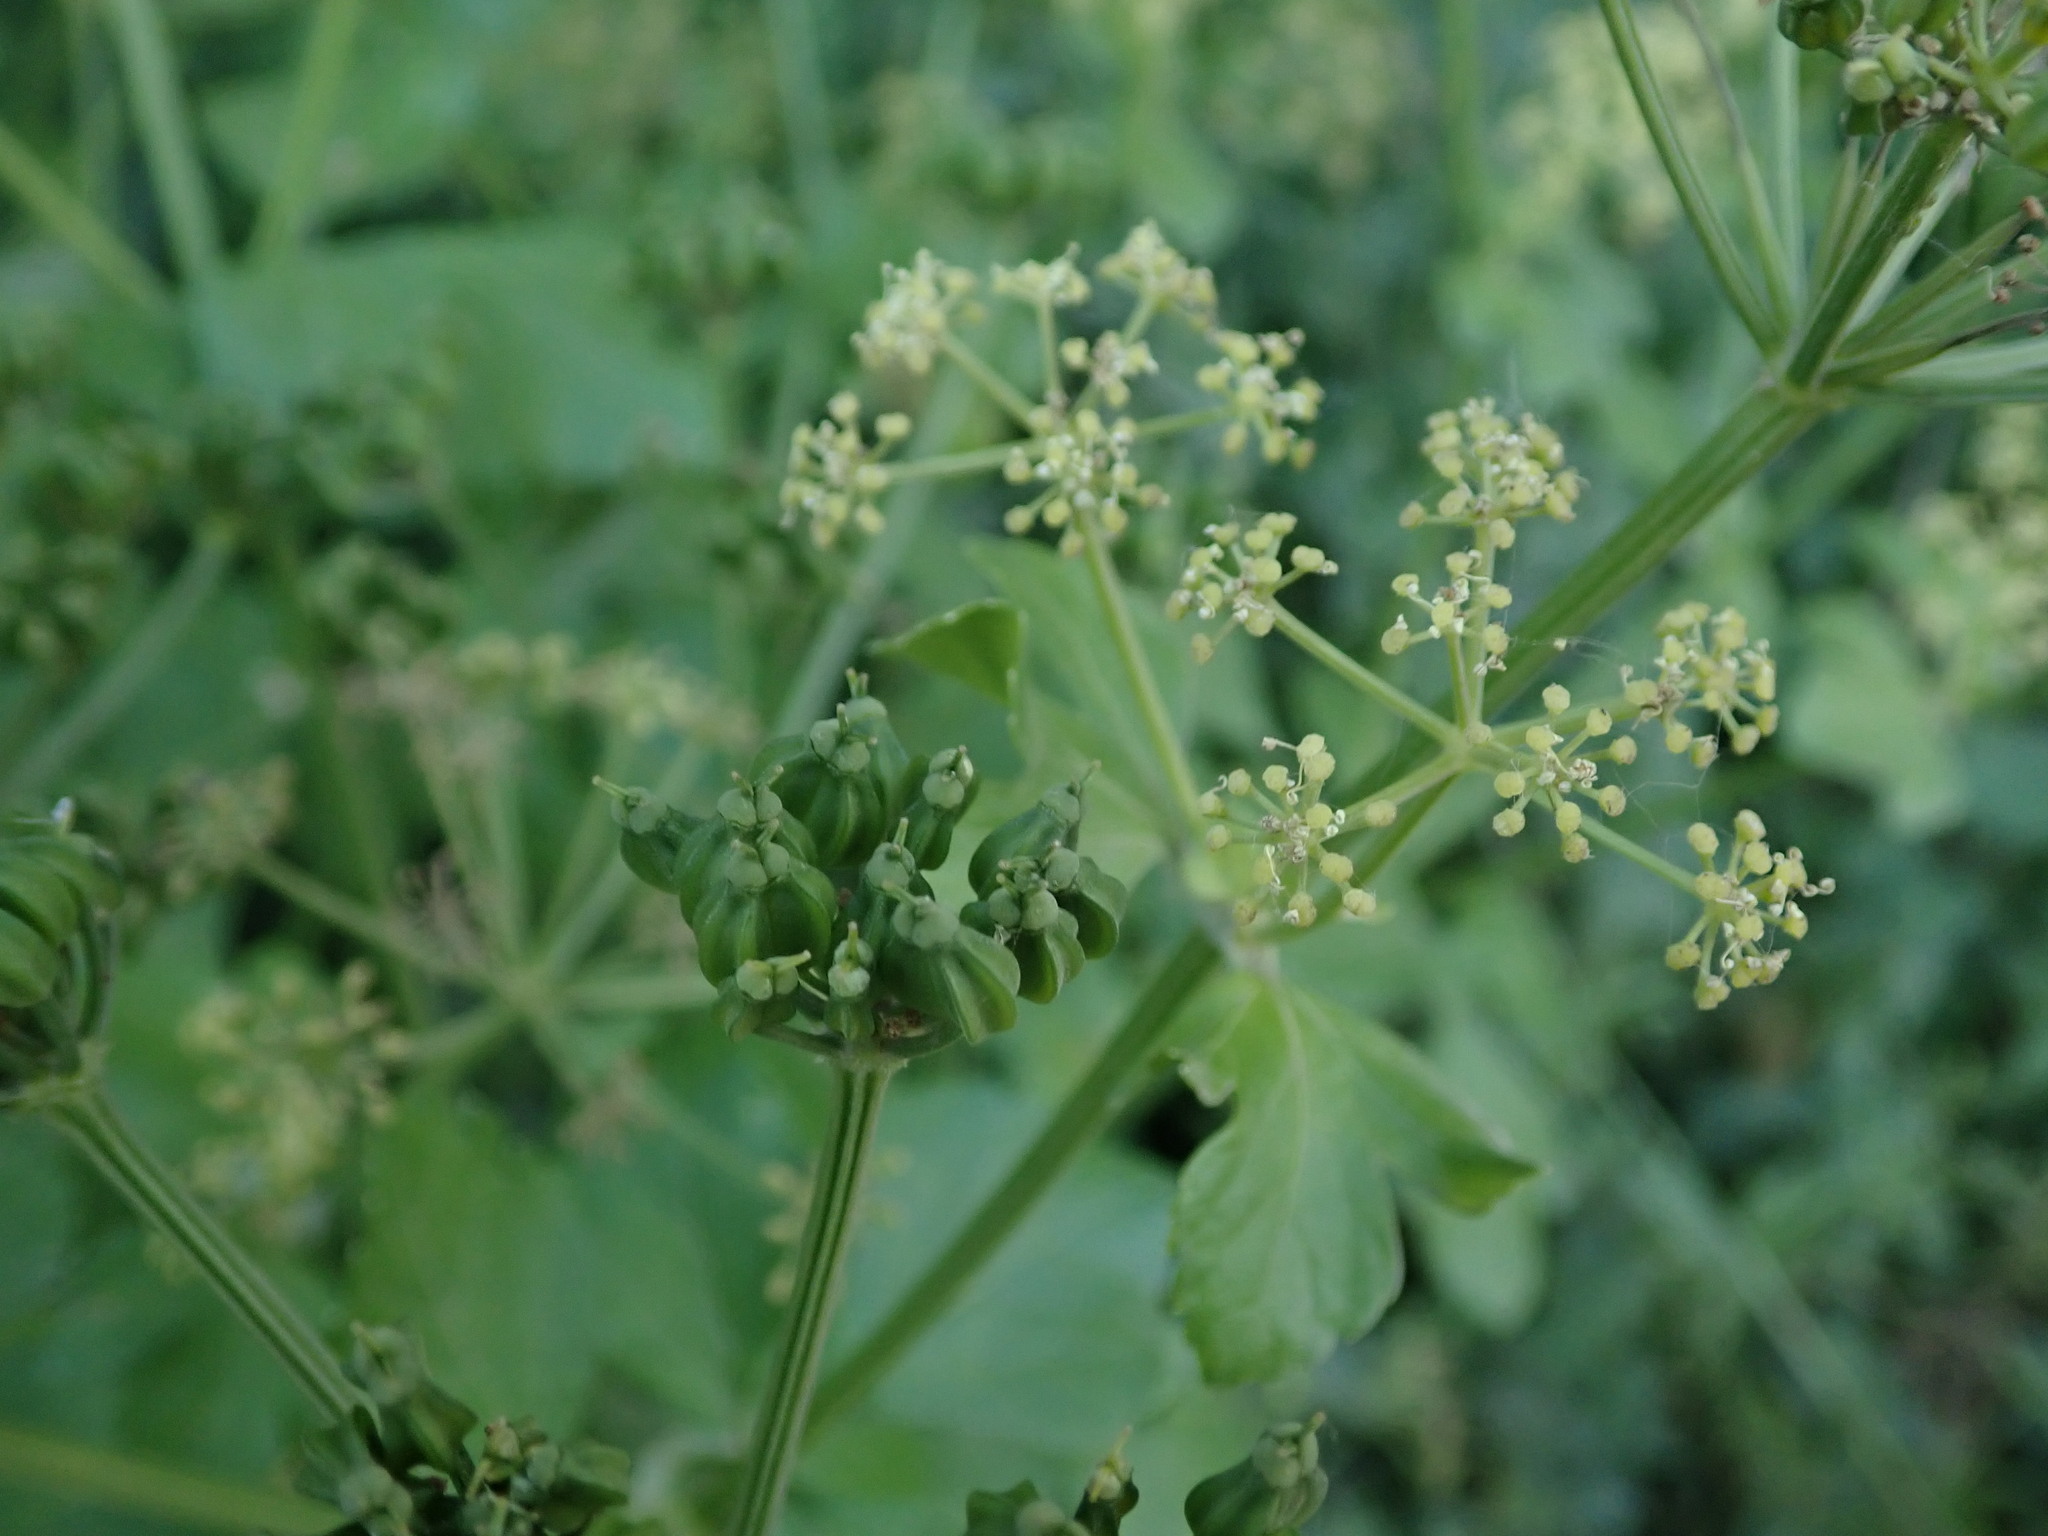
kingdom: Plantae
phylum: Tracheophyta
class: Magnoliopsida
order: Apiales
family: Apiaceae
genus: Smyrnium
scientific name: Smyrnium olusatrum
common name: Alexanders
